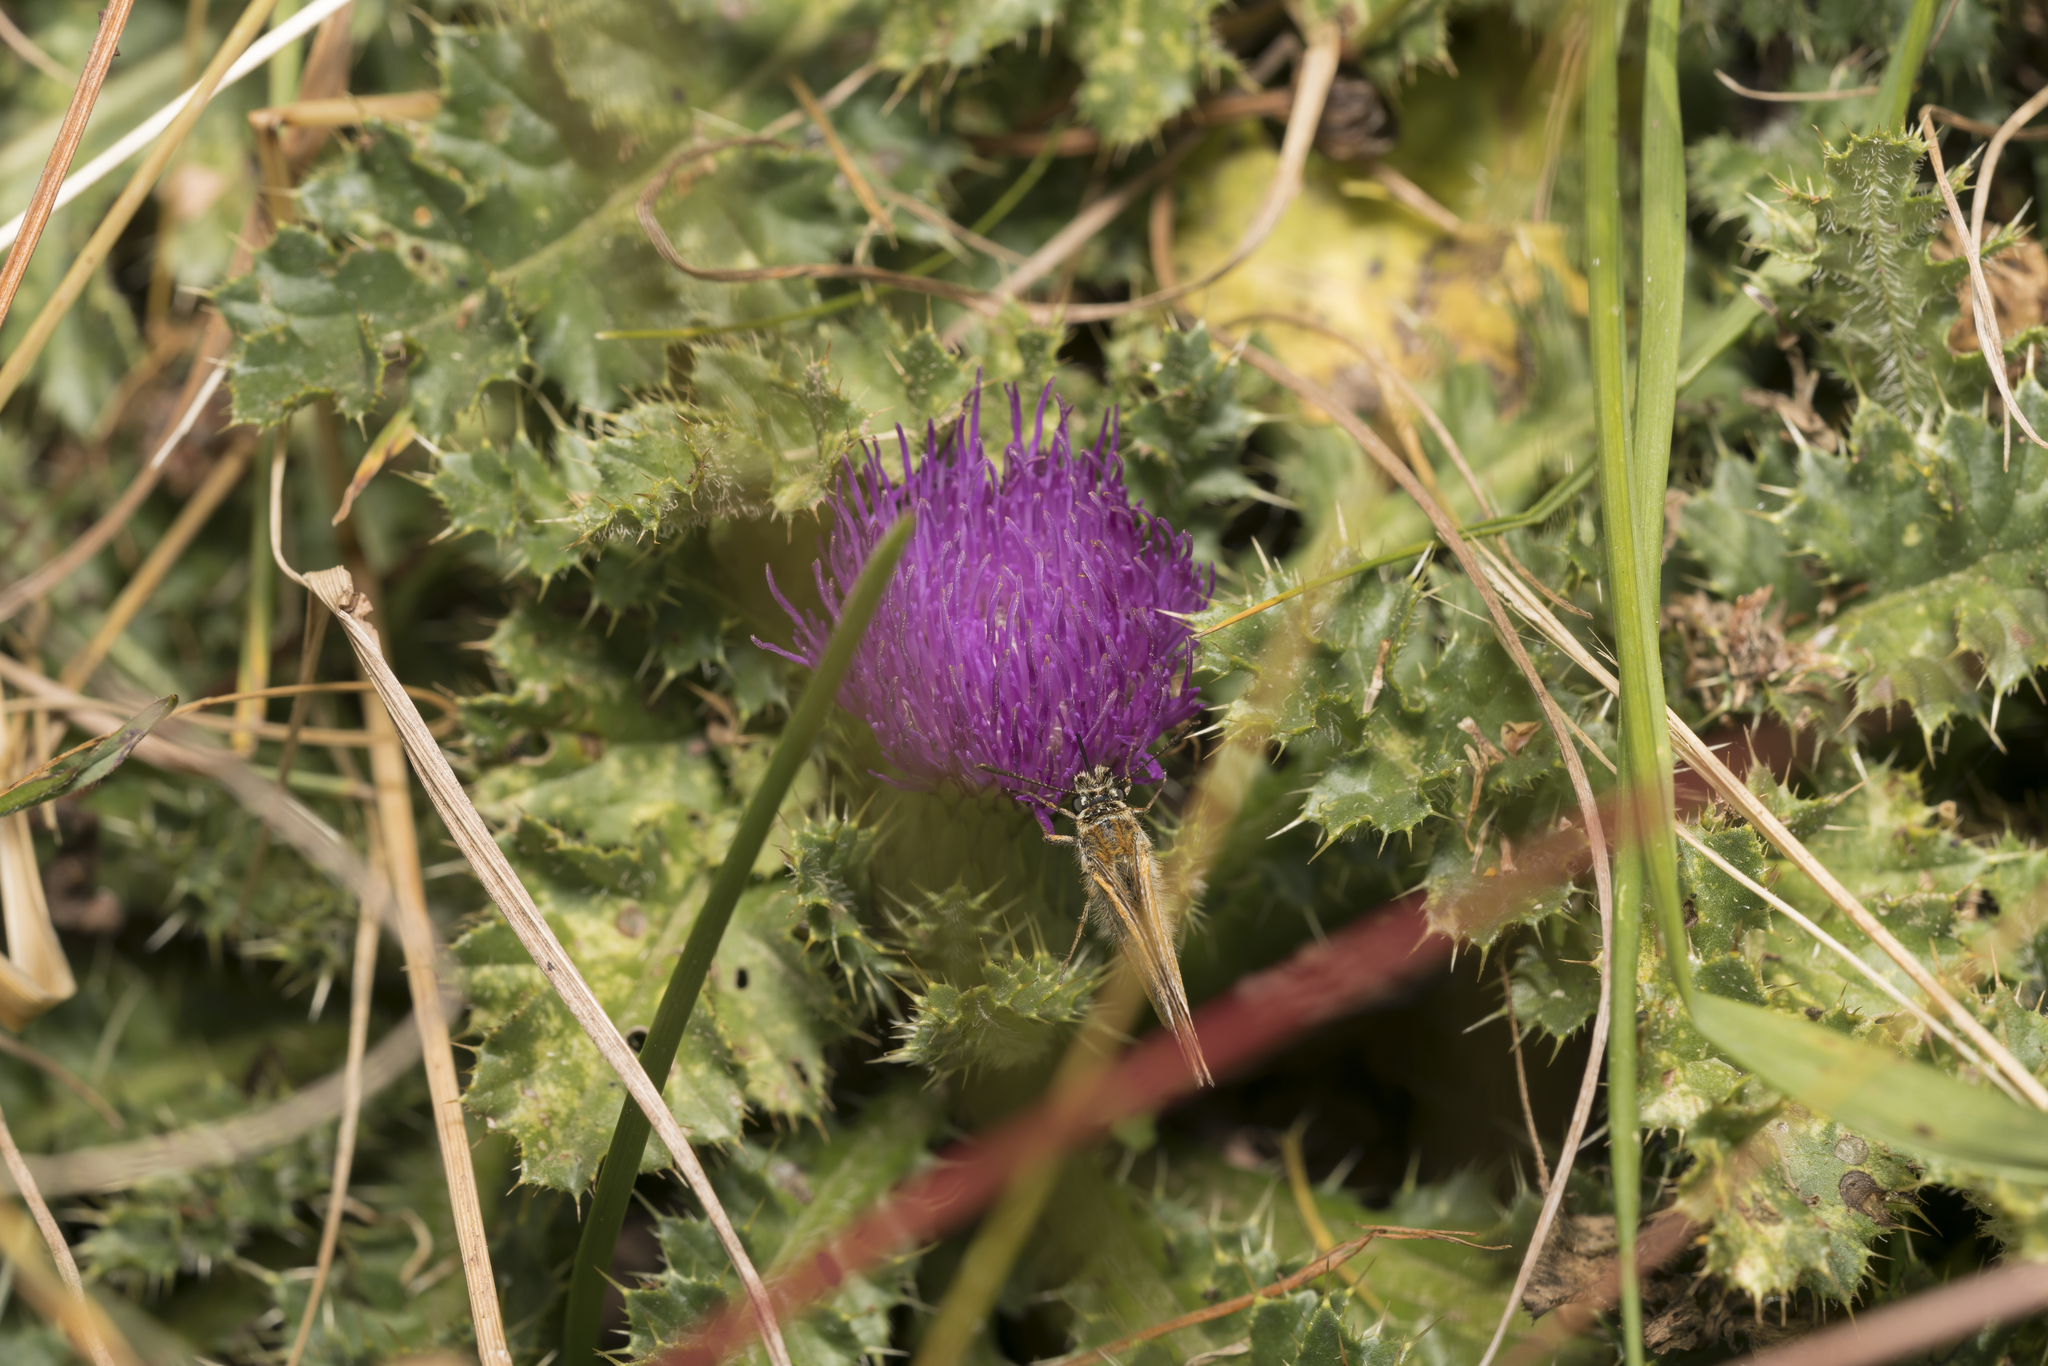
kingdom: Plantae
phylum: Tracheophyta
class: Magnoliopsida
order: Asterales
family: Asteraceae
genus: Cirsium
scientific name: Cirsium acaulon
